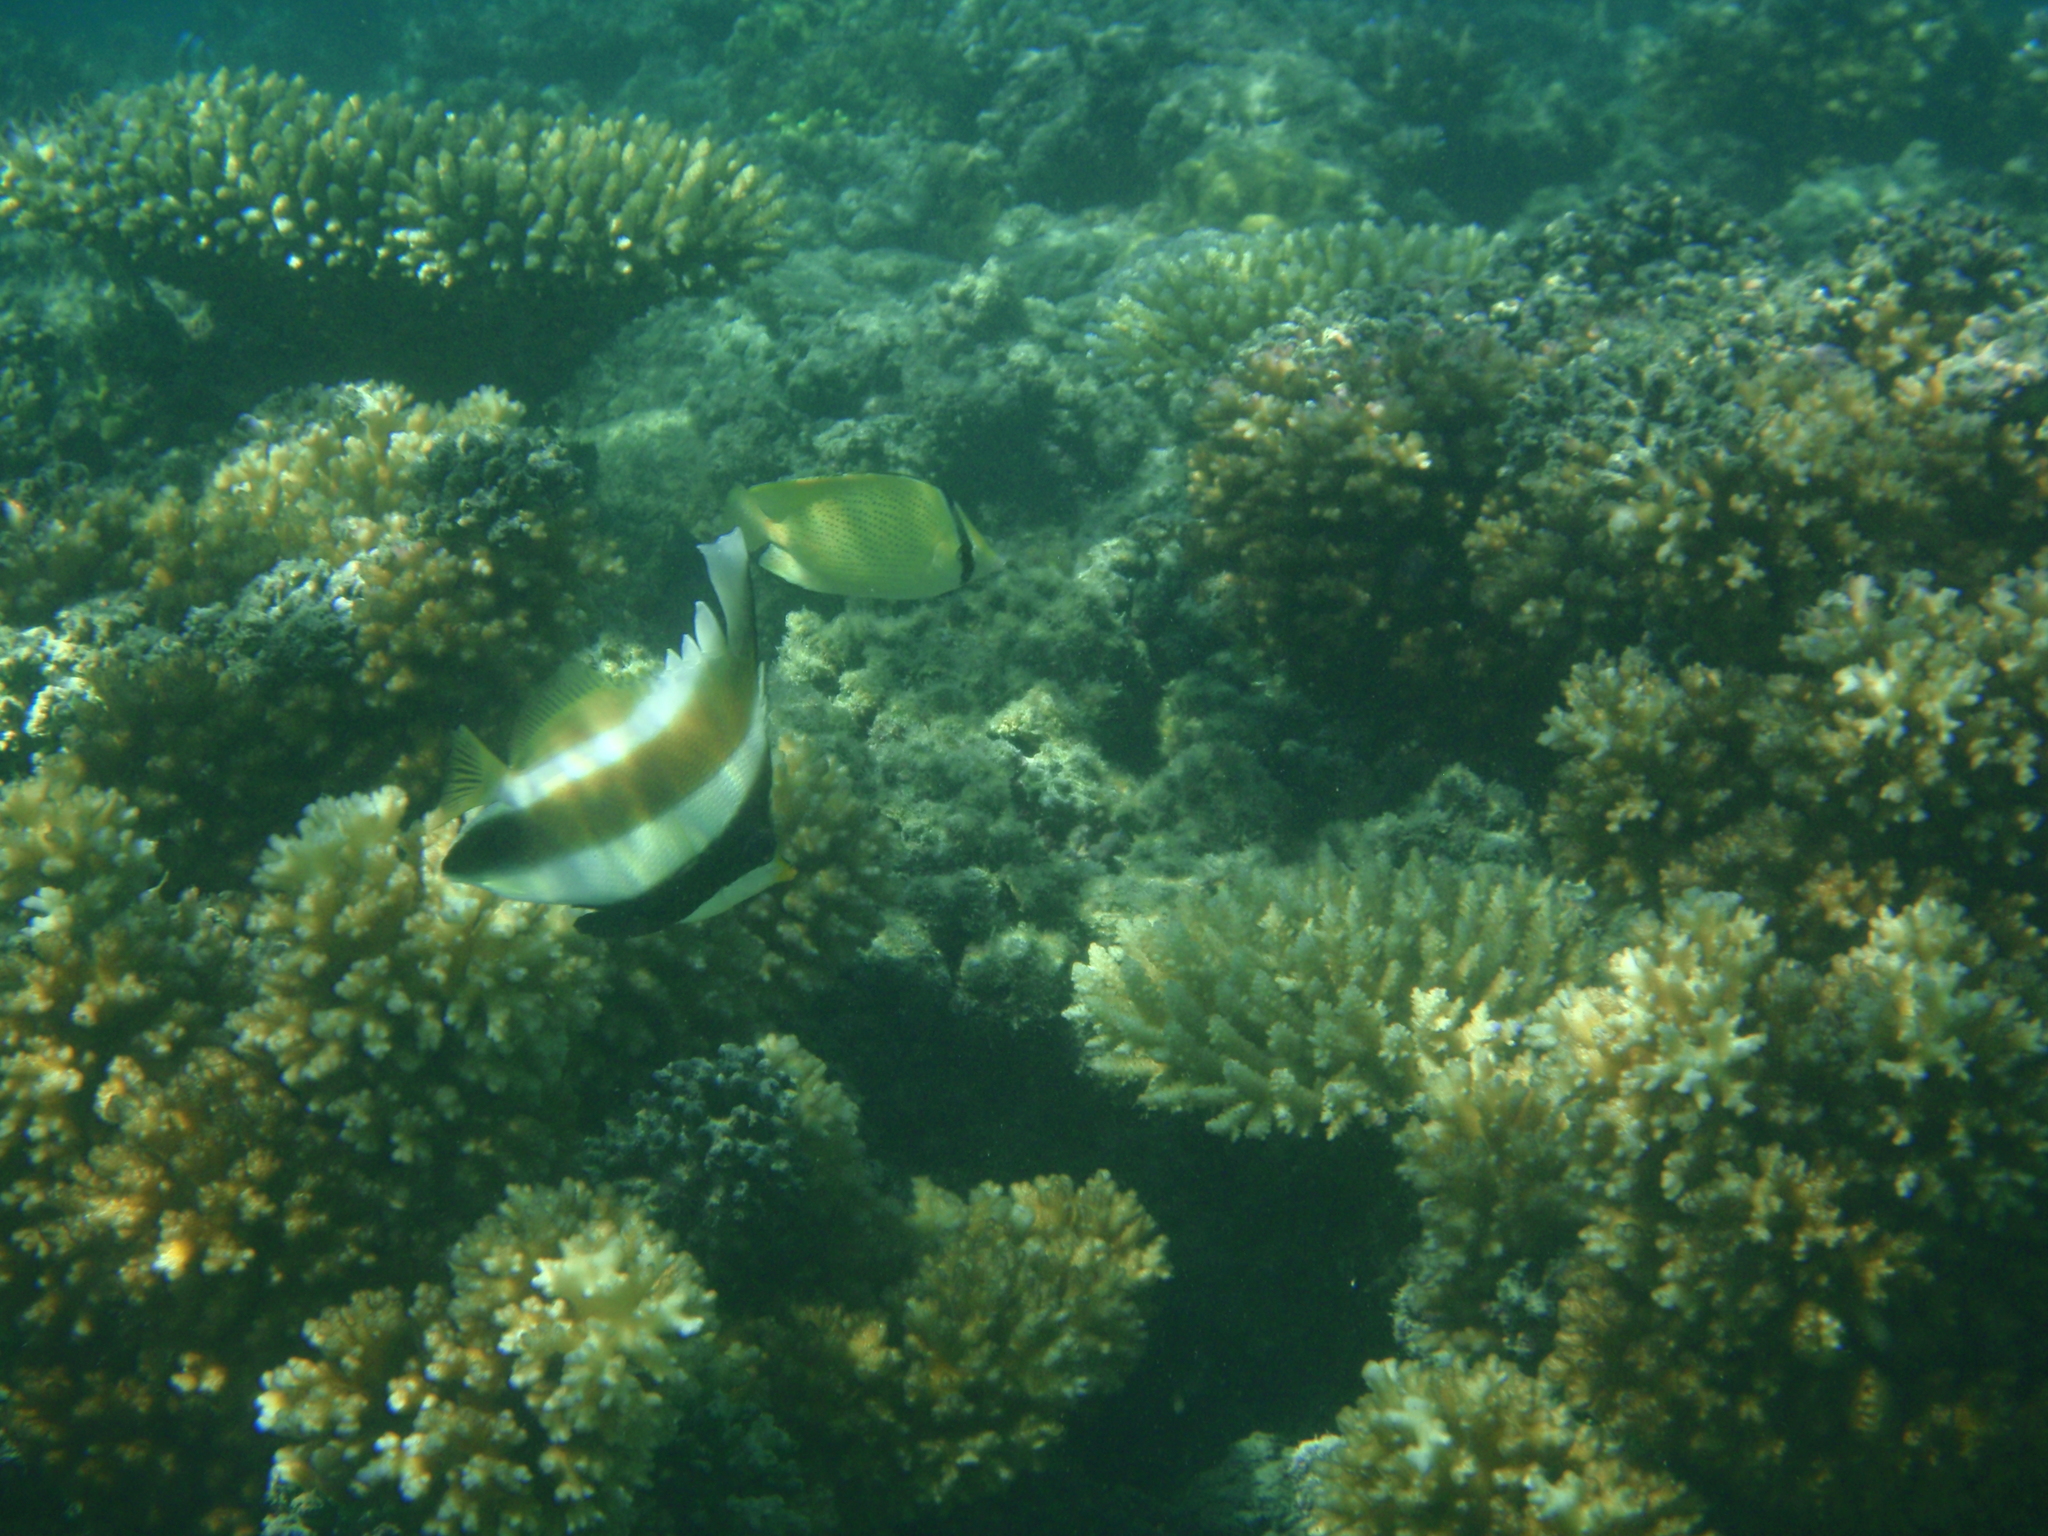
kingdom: Animalia
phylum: Chordata
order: Perciformes
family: Chaetodontidae
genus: Heniochus
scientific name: Heniochus chrysostomus
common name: Horned bannerfish
